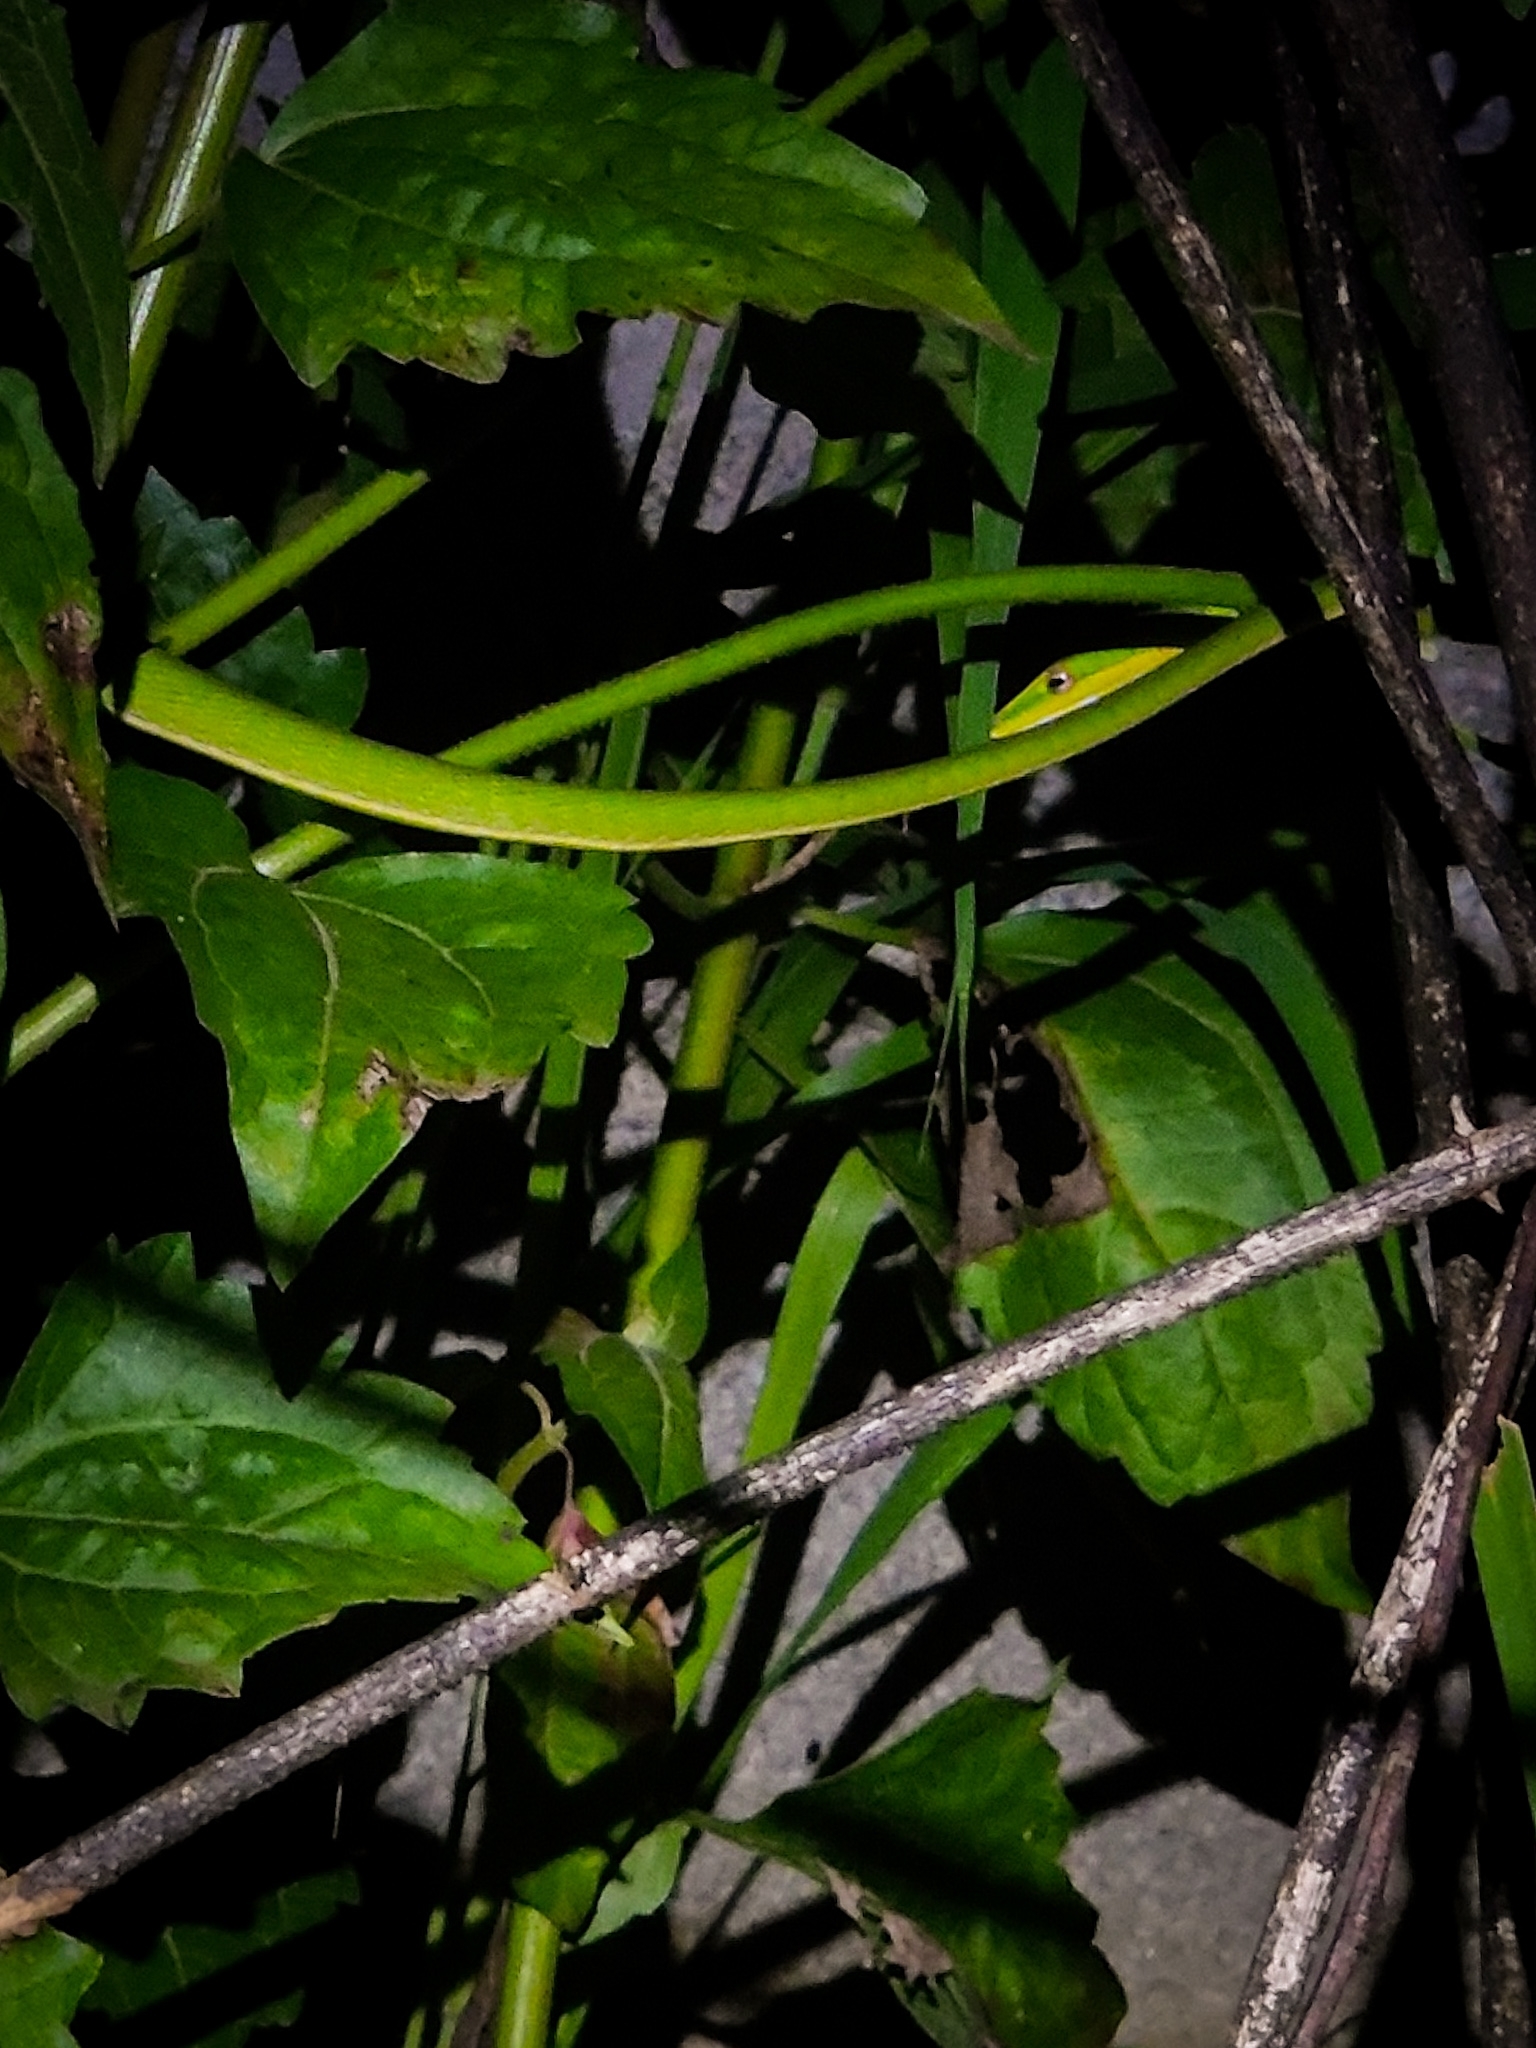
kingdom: Animalia
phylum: Chordata
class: Squamata
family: Colubridae
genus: Ahaetulla
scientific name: Ahaetulla oxyrhyncha
